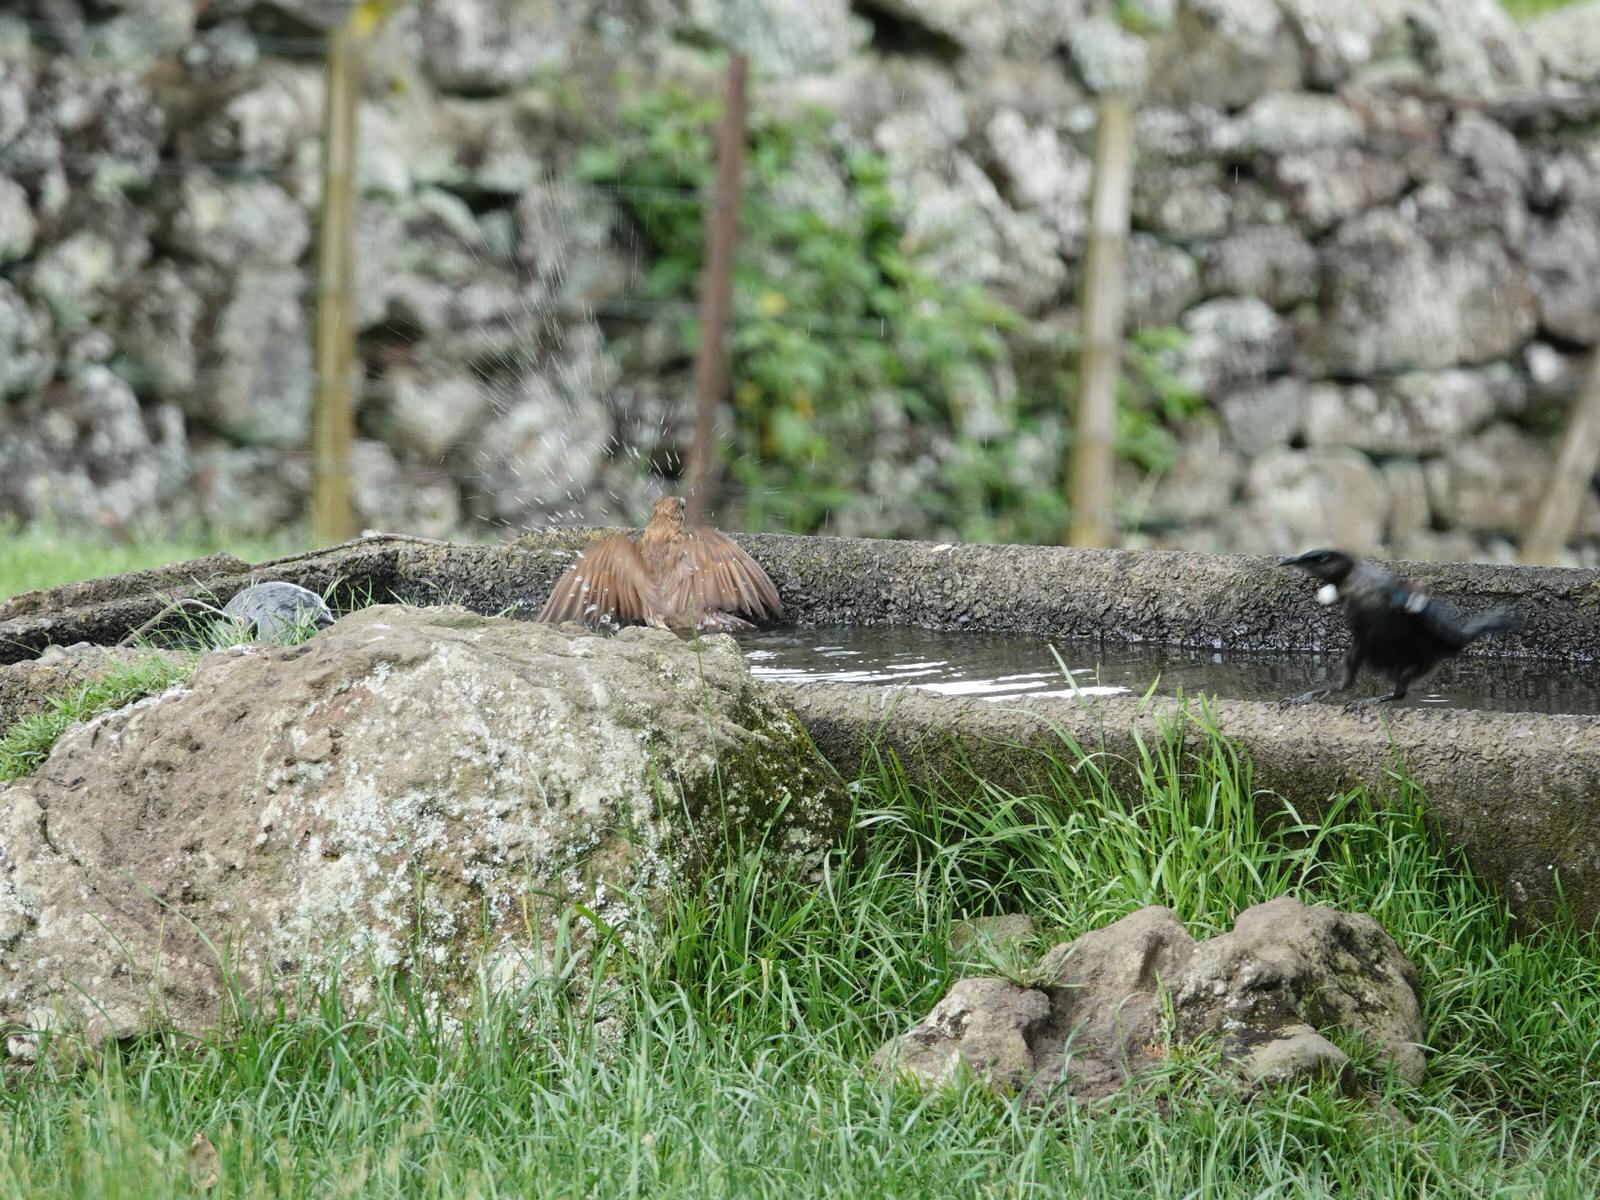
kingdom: Animalia
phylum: Chordata
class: Aves
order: Passeriformes
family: Turdidae
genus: Turdus
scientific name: Turdus philomelos
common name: Song thrush
